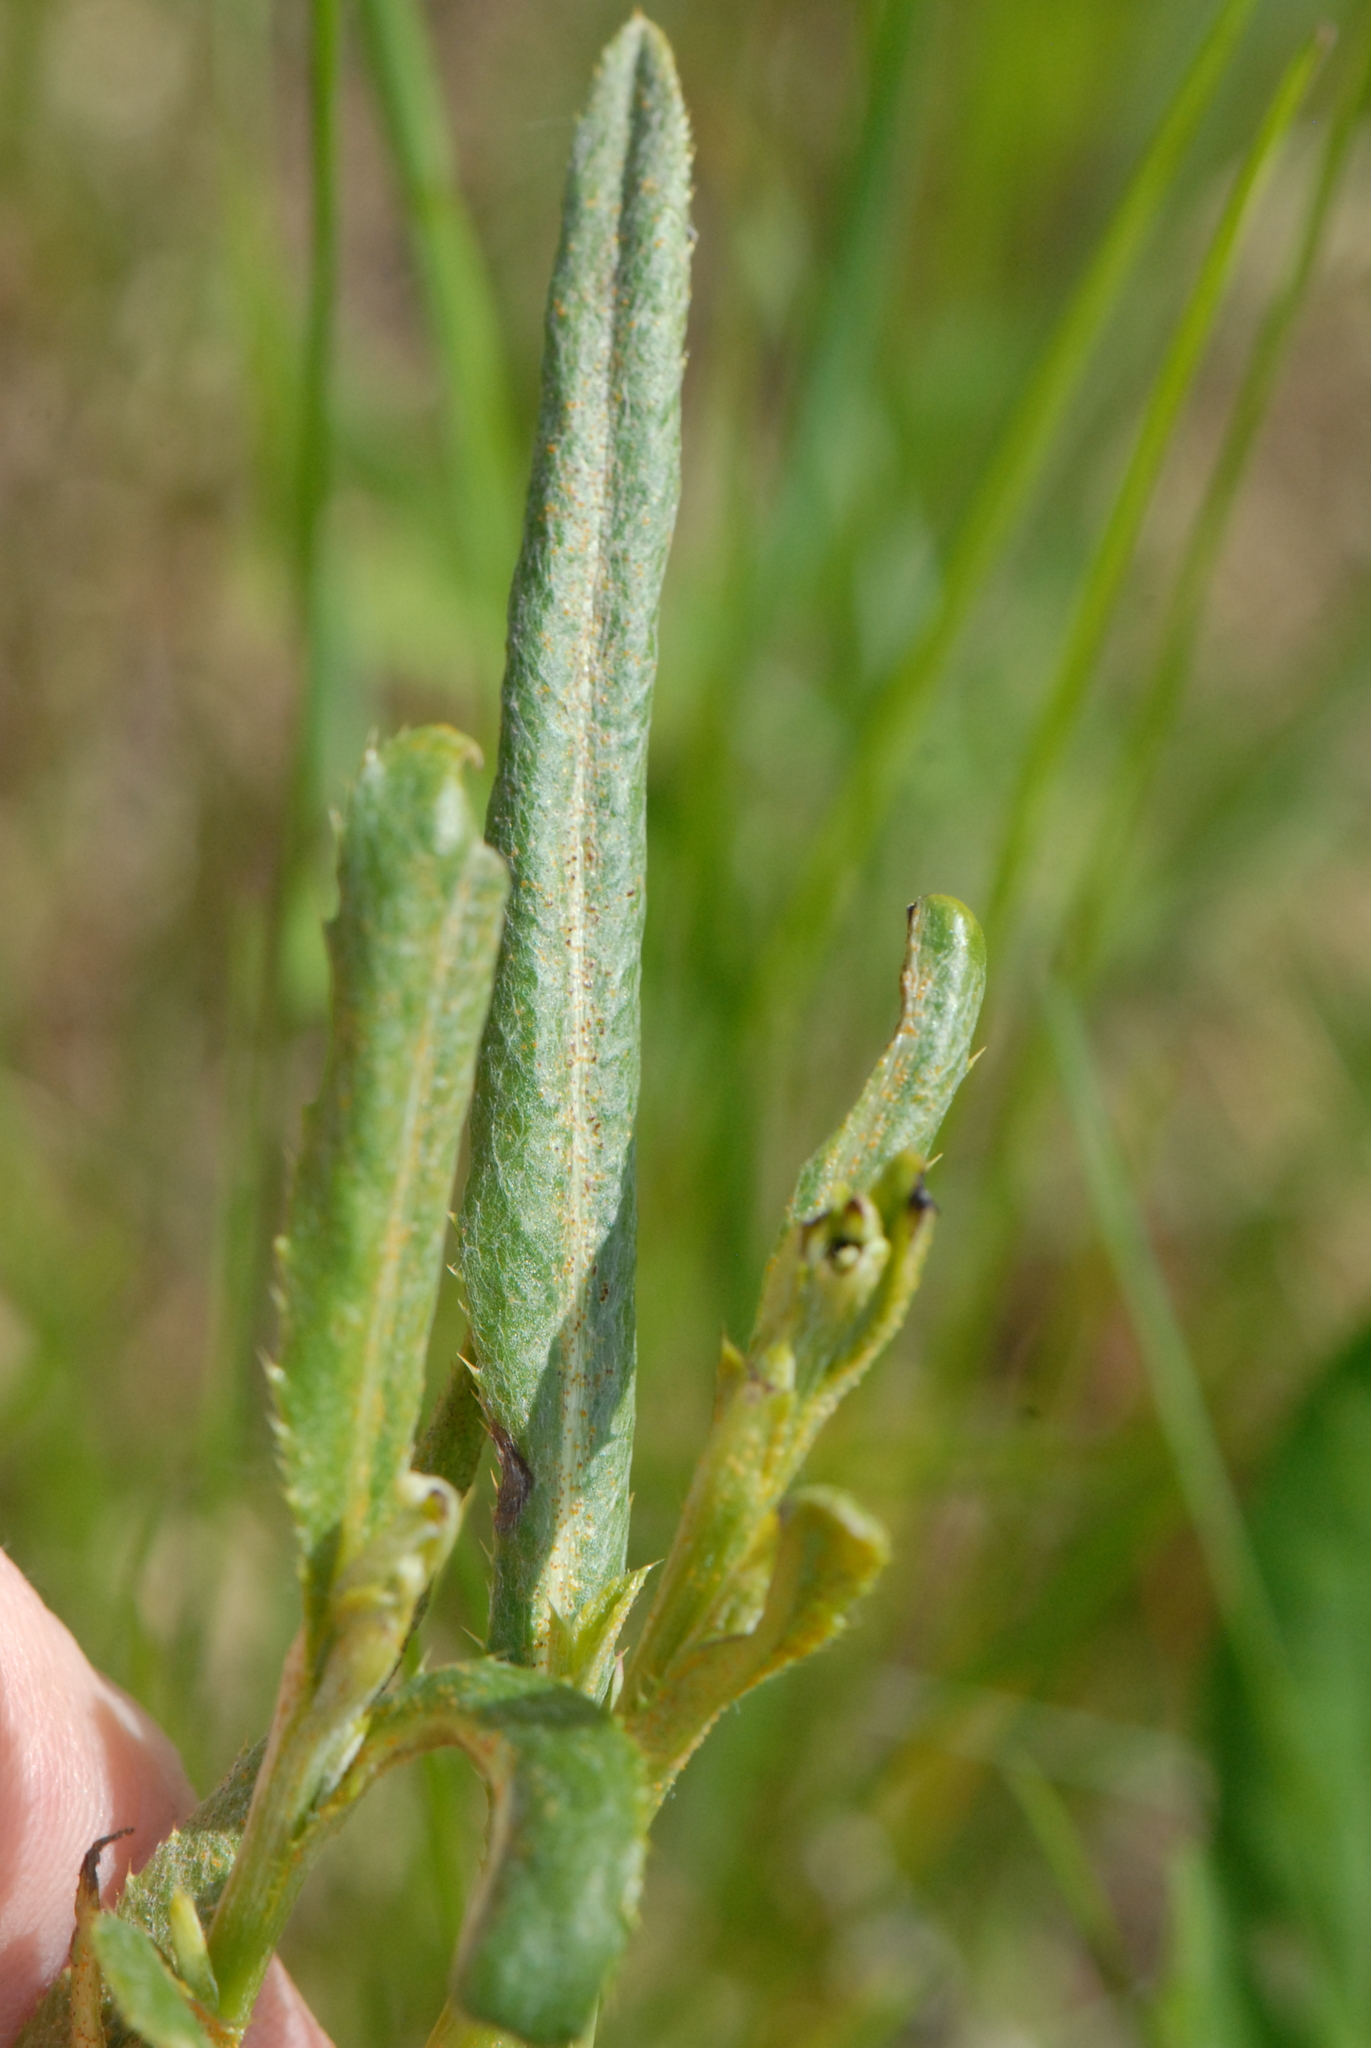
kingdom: Fungi
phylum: Basidiomycota
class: Pucciniomycetes
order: Pucciniales
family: Pucciniaceae
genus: Puccinia
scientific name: Puccinia sii-falcariae
